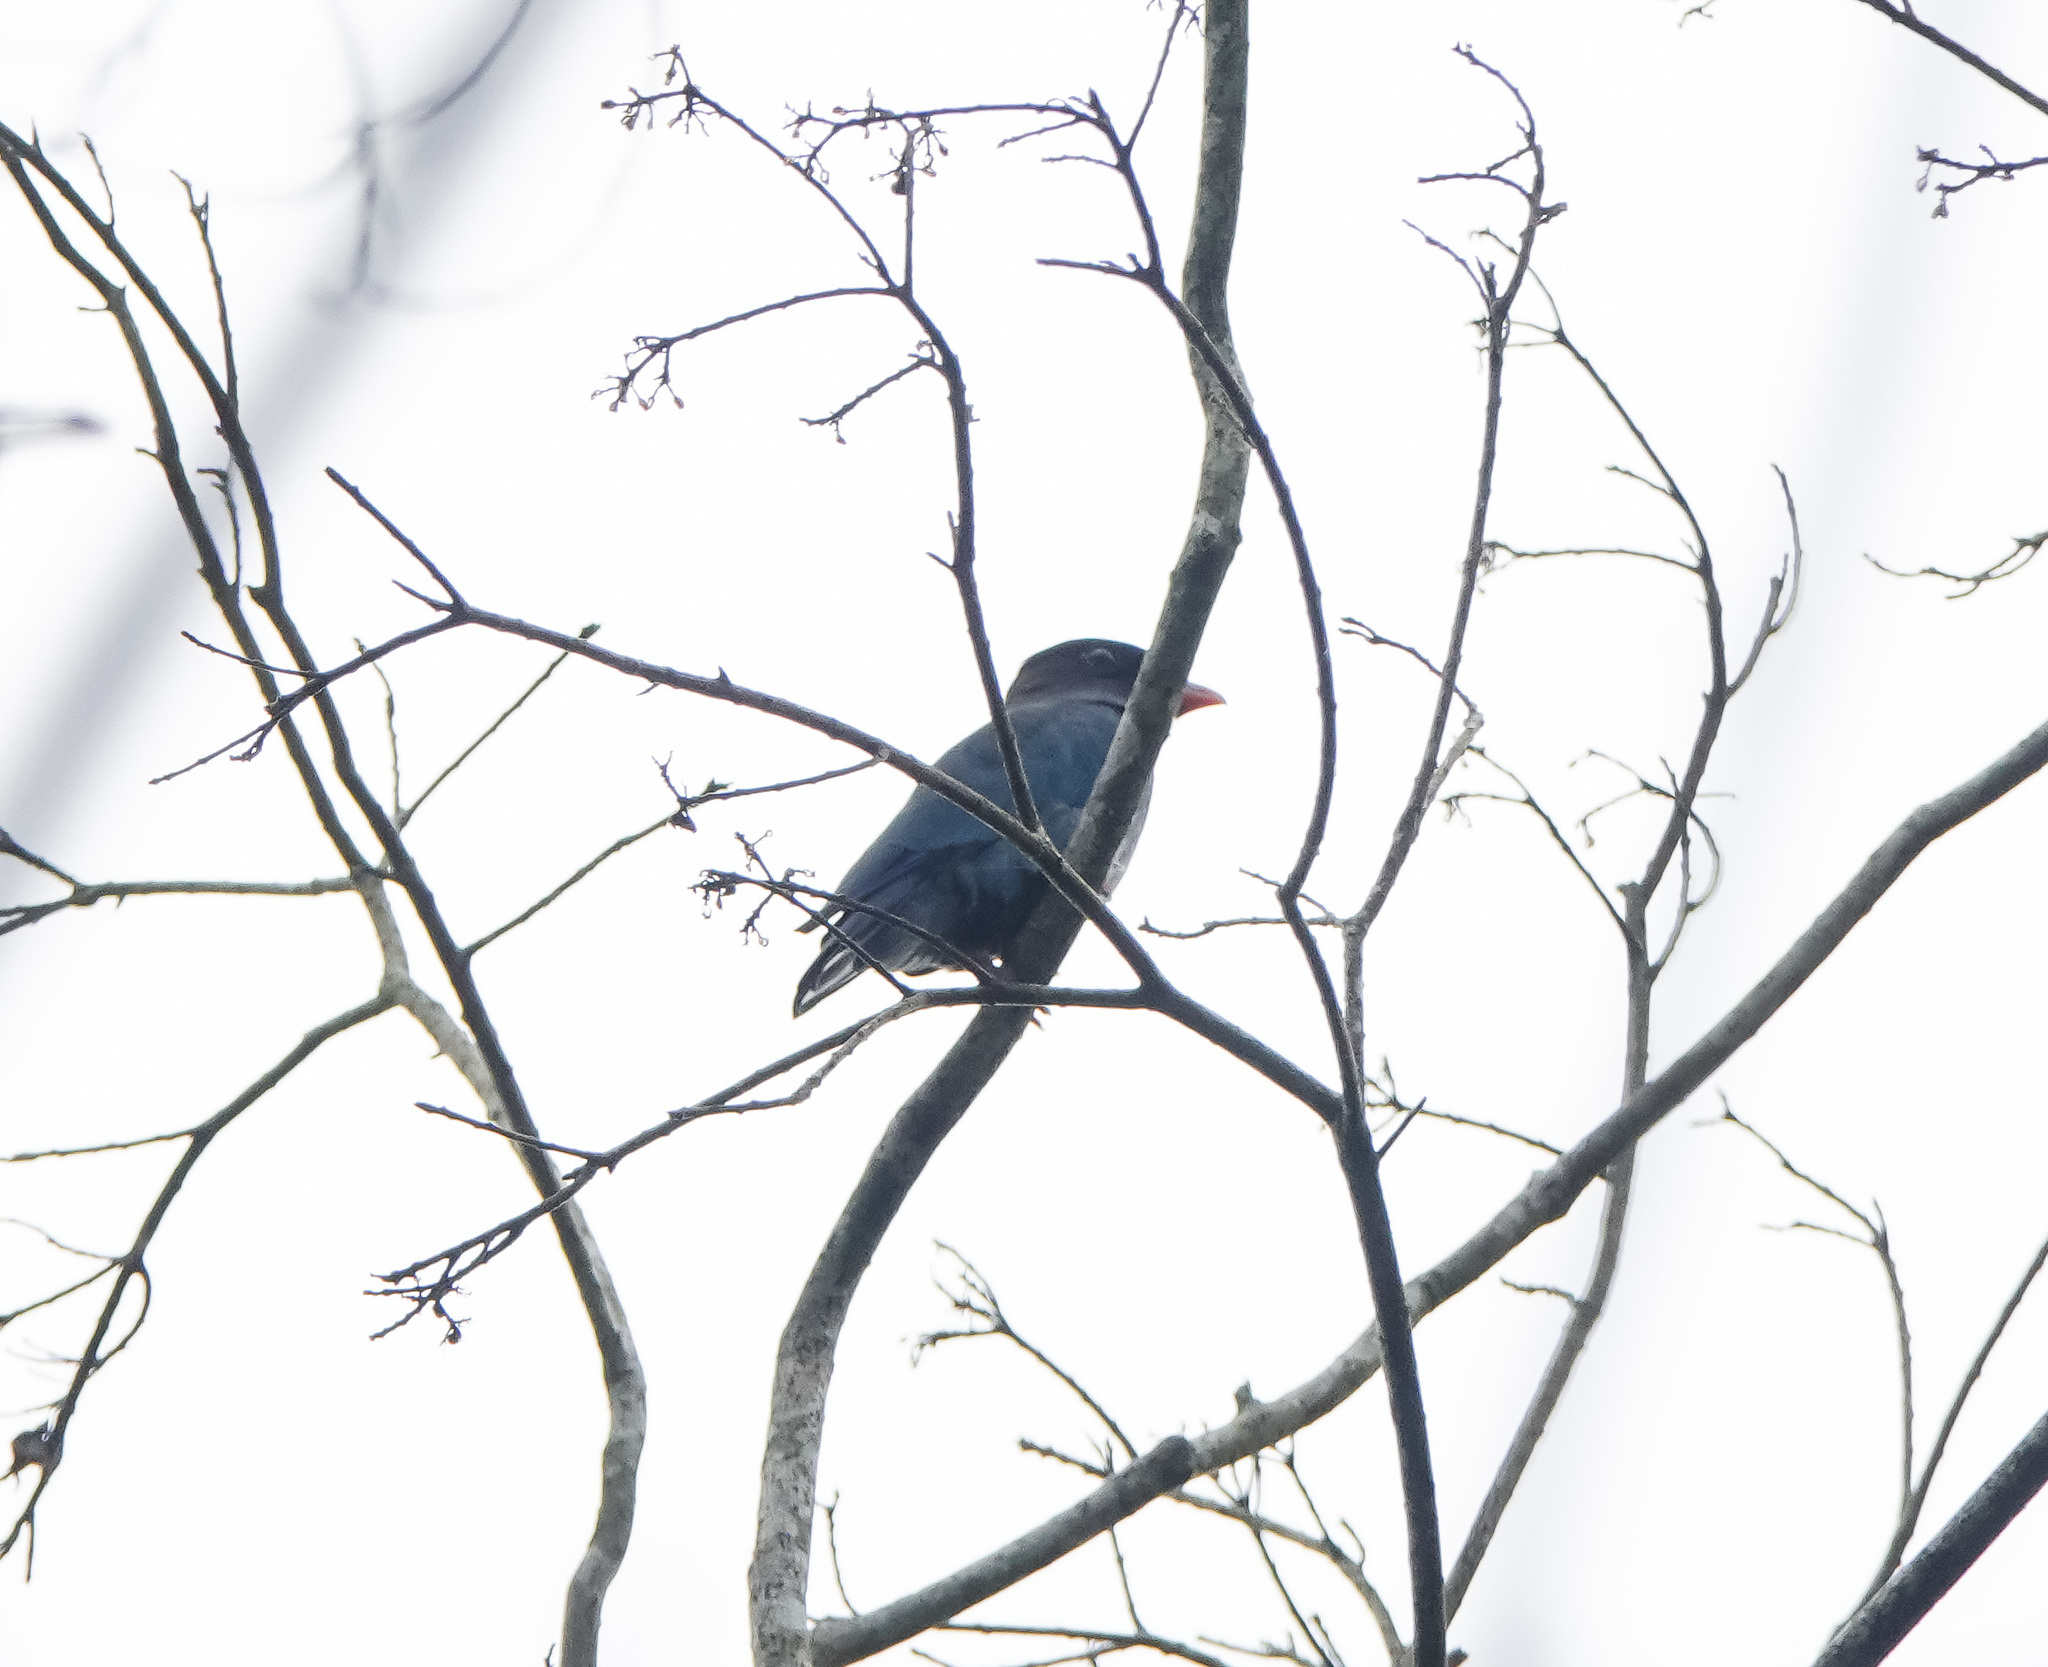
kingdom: Animalia
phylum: Chordata
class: Aves
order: Coraciiformes
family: Coraciidae
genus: Eurystomus
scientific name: Eurystomus orientalis
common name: Oriental dollarbird
